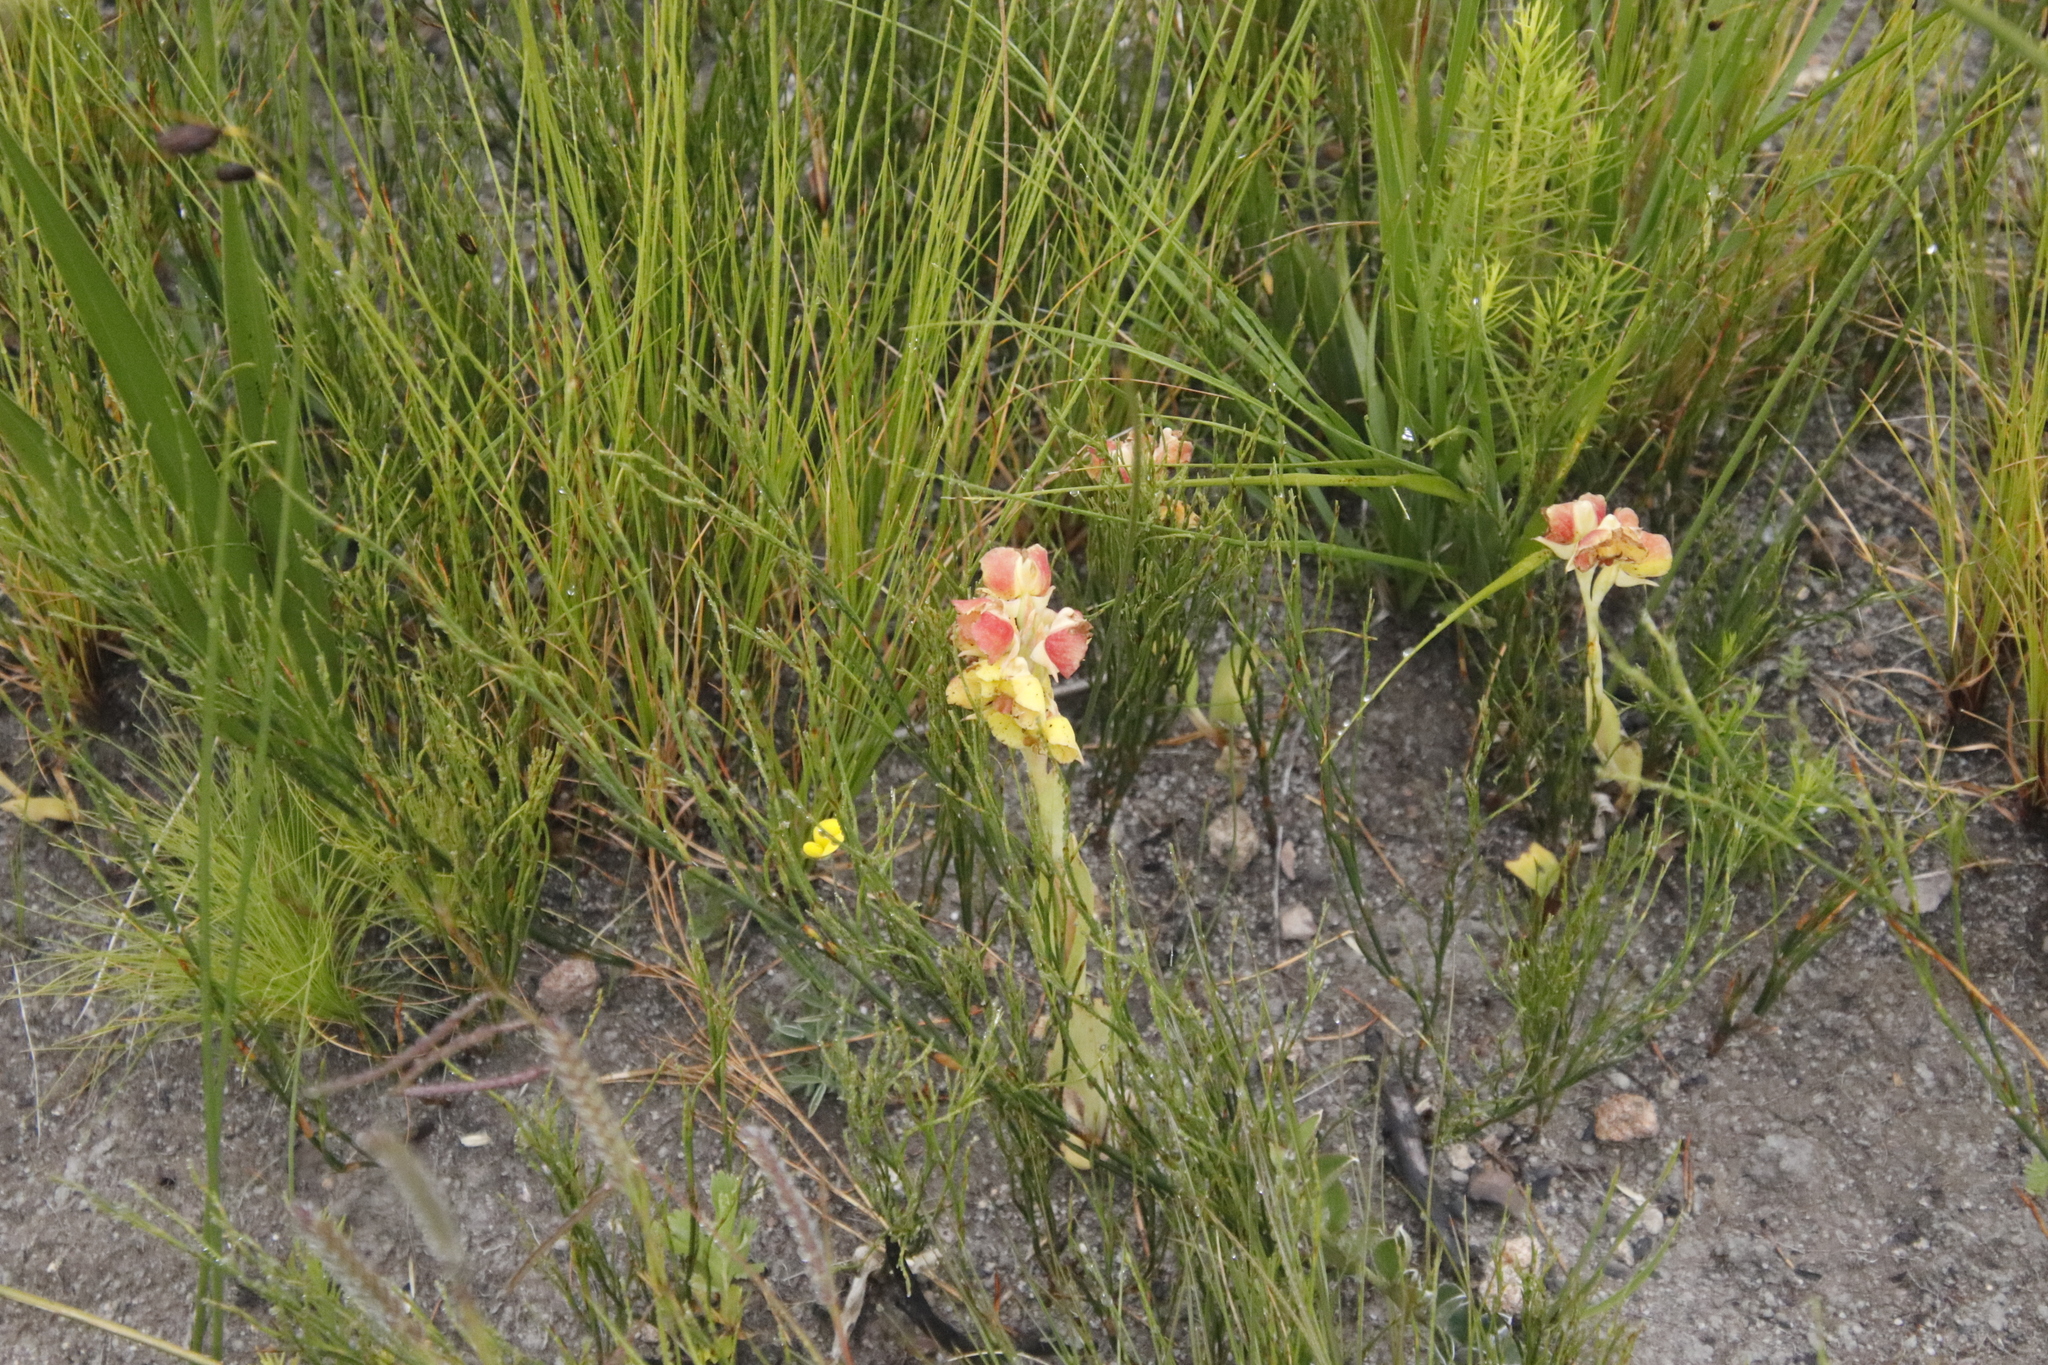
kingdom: Plantae
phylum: Tracheophyta
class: Liliopsida
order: Asparagales
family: Orchidaceae
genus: Pterygodium
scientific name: Pterygodium catholicum
